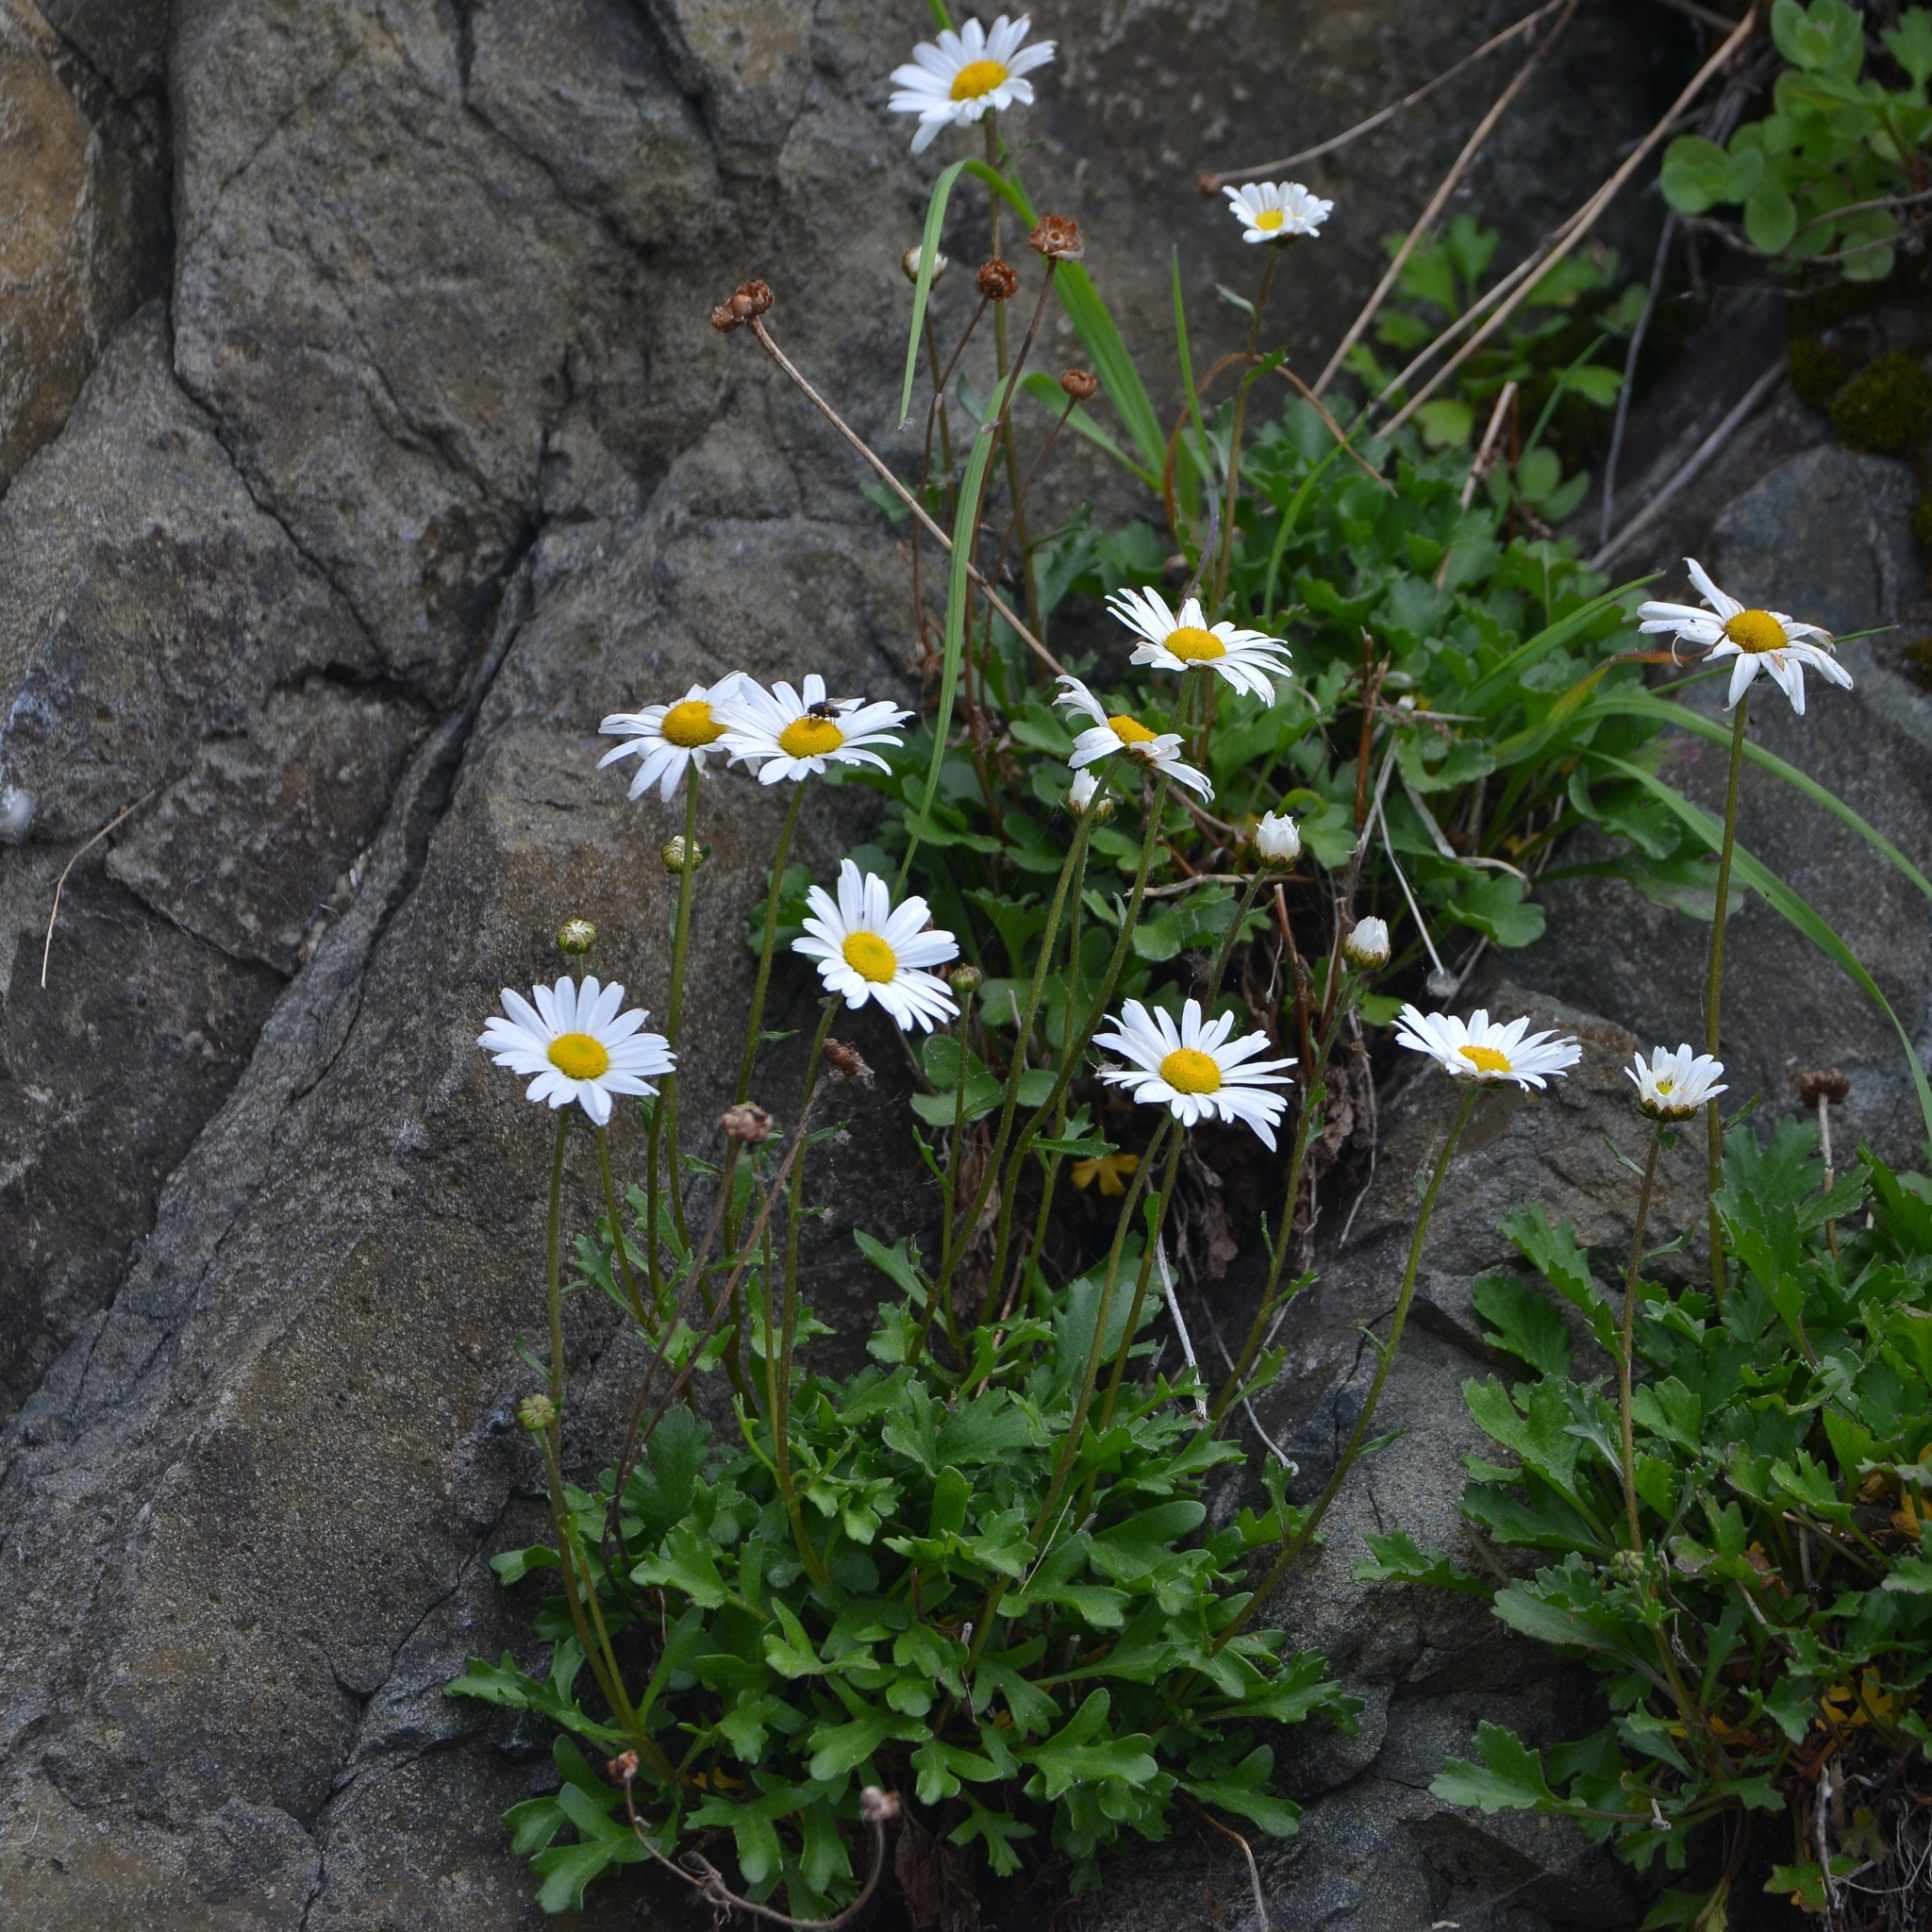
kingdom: Plantae
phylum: Tracheophyta
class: Magnoliopsida
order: Asterales
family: Asteraceae
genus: Arctanthemum
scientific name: Arctanthemum arcticum
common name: Arctic daisy
